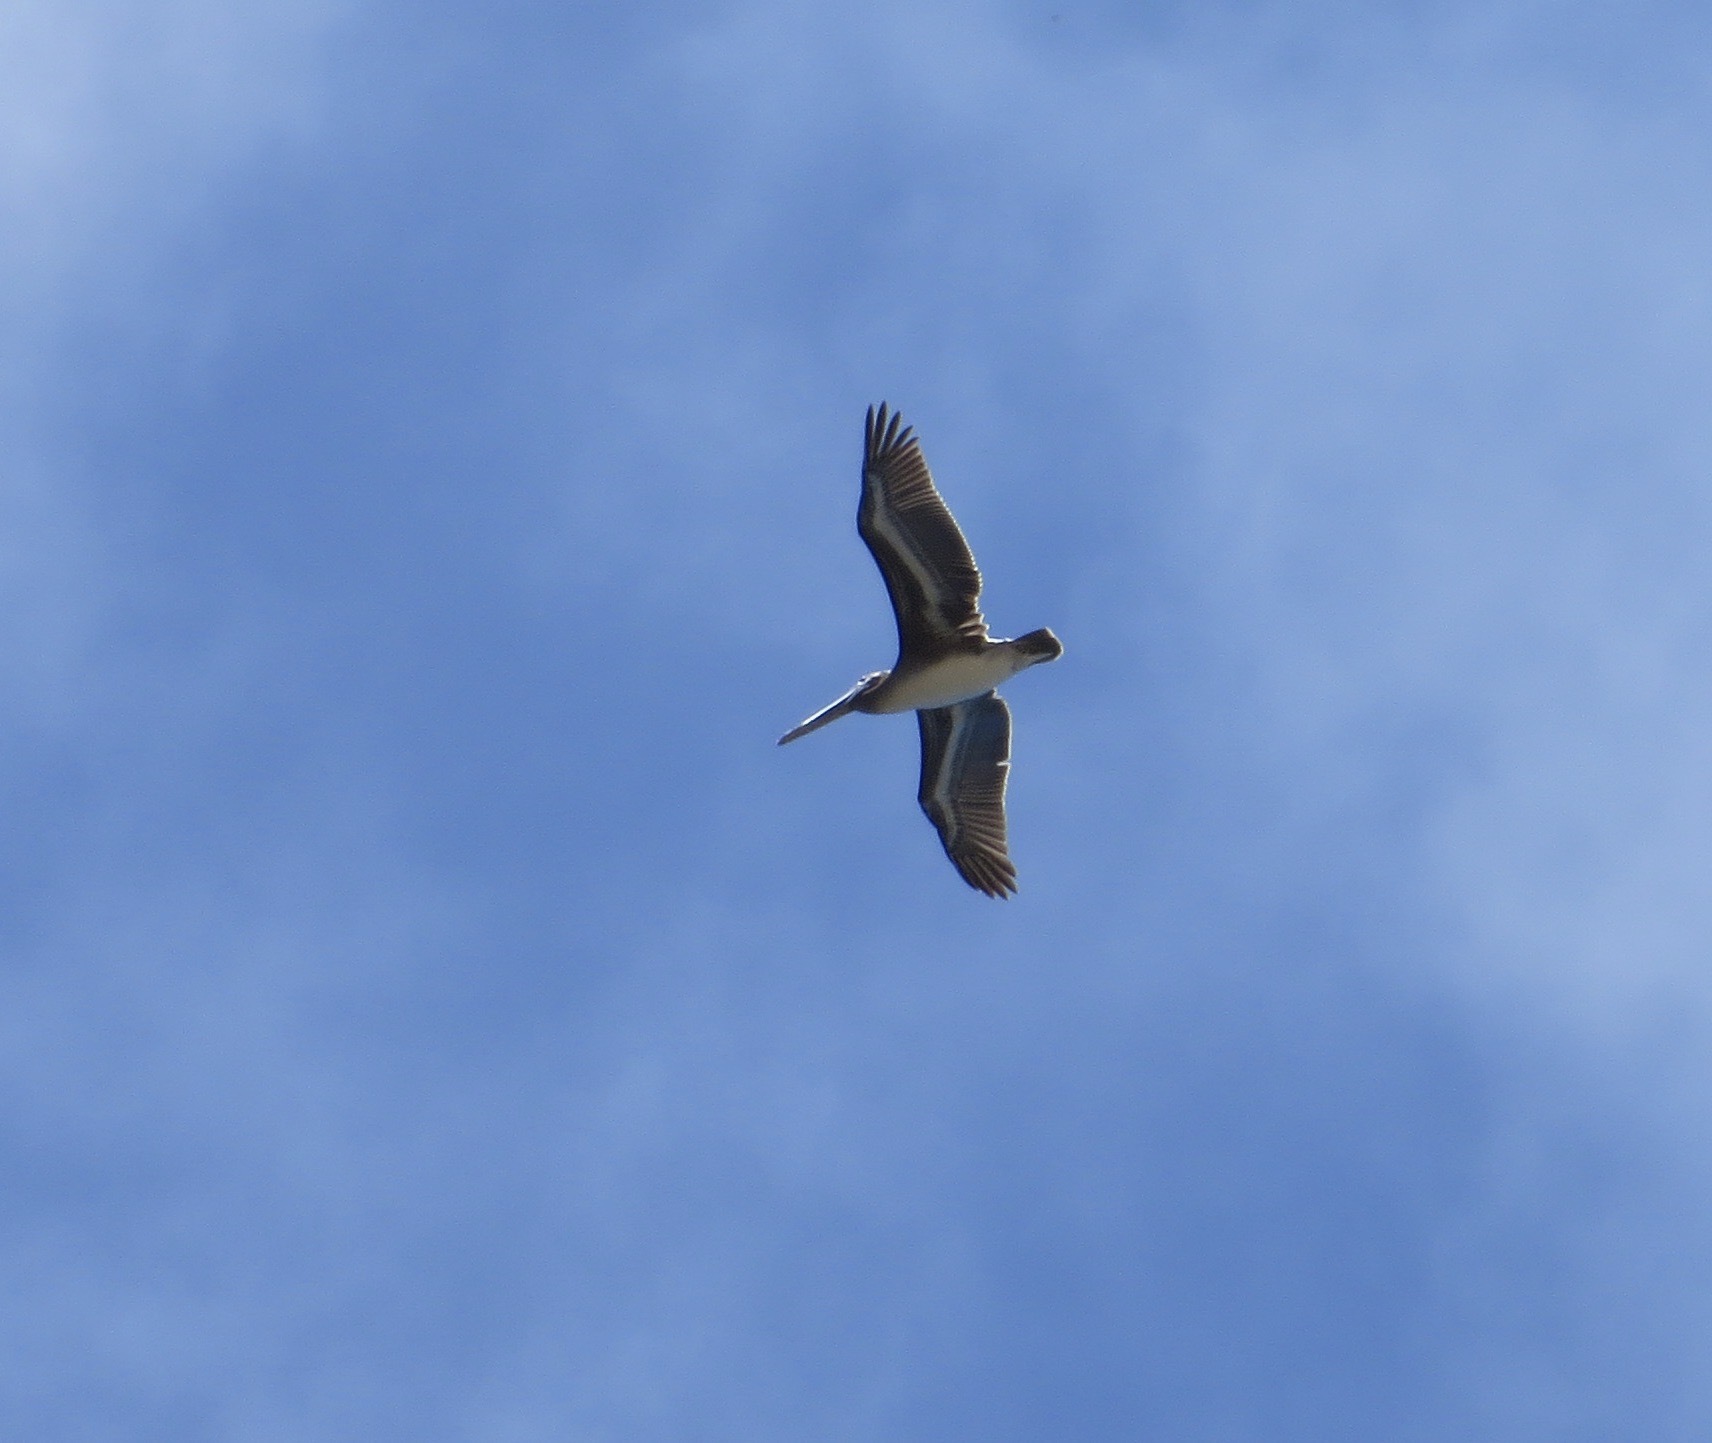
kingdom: Animalia
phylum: Chordata
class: Aves
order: Pelecaniformes
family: Pelecanidae
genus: Pelecanus
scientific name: Pelecanus occidentalis
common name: Brown pelican
